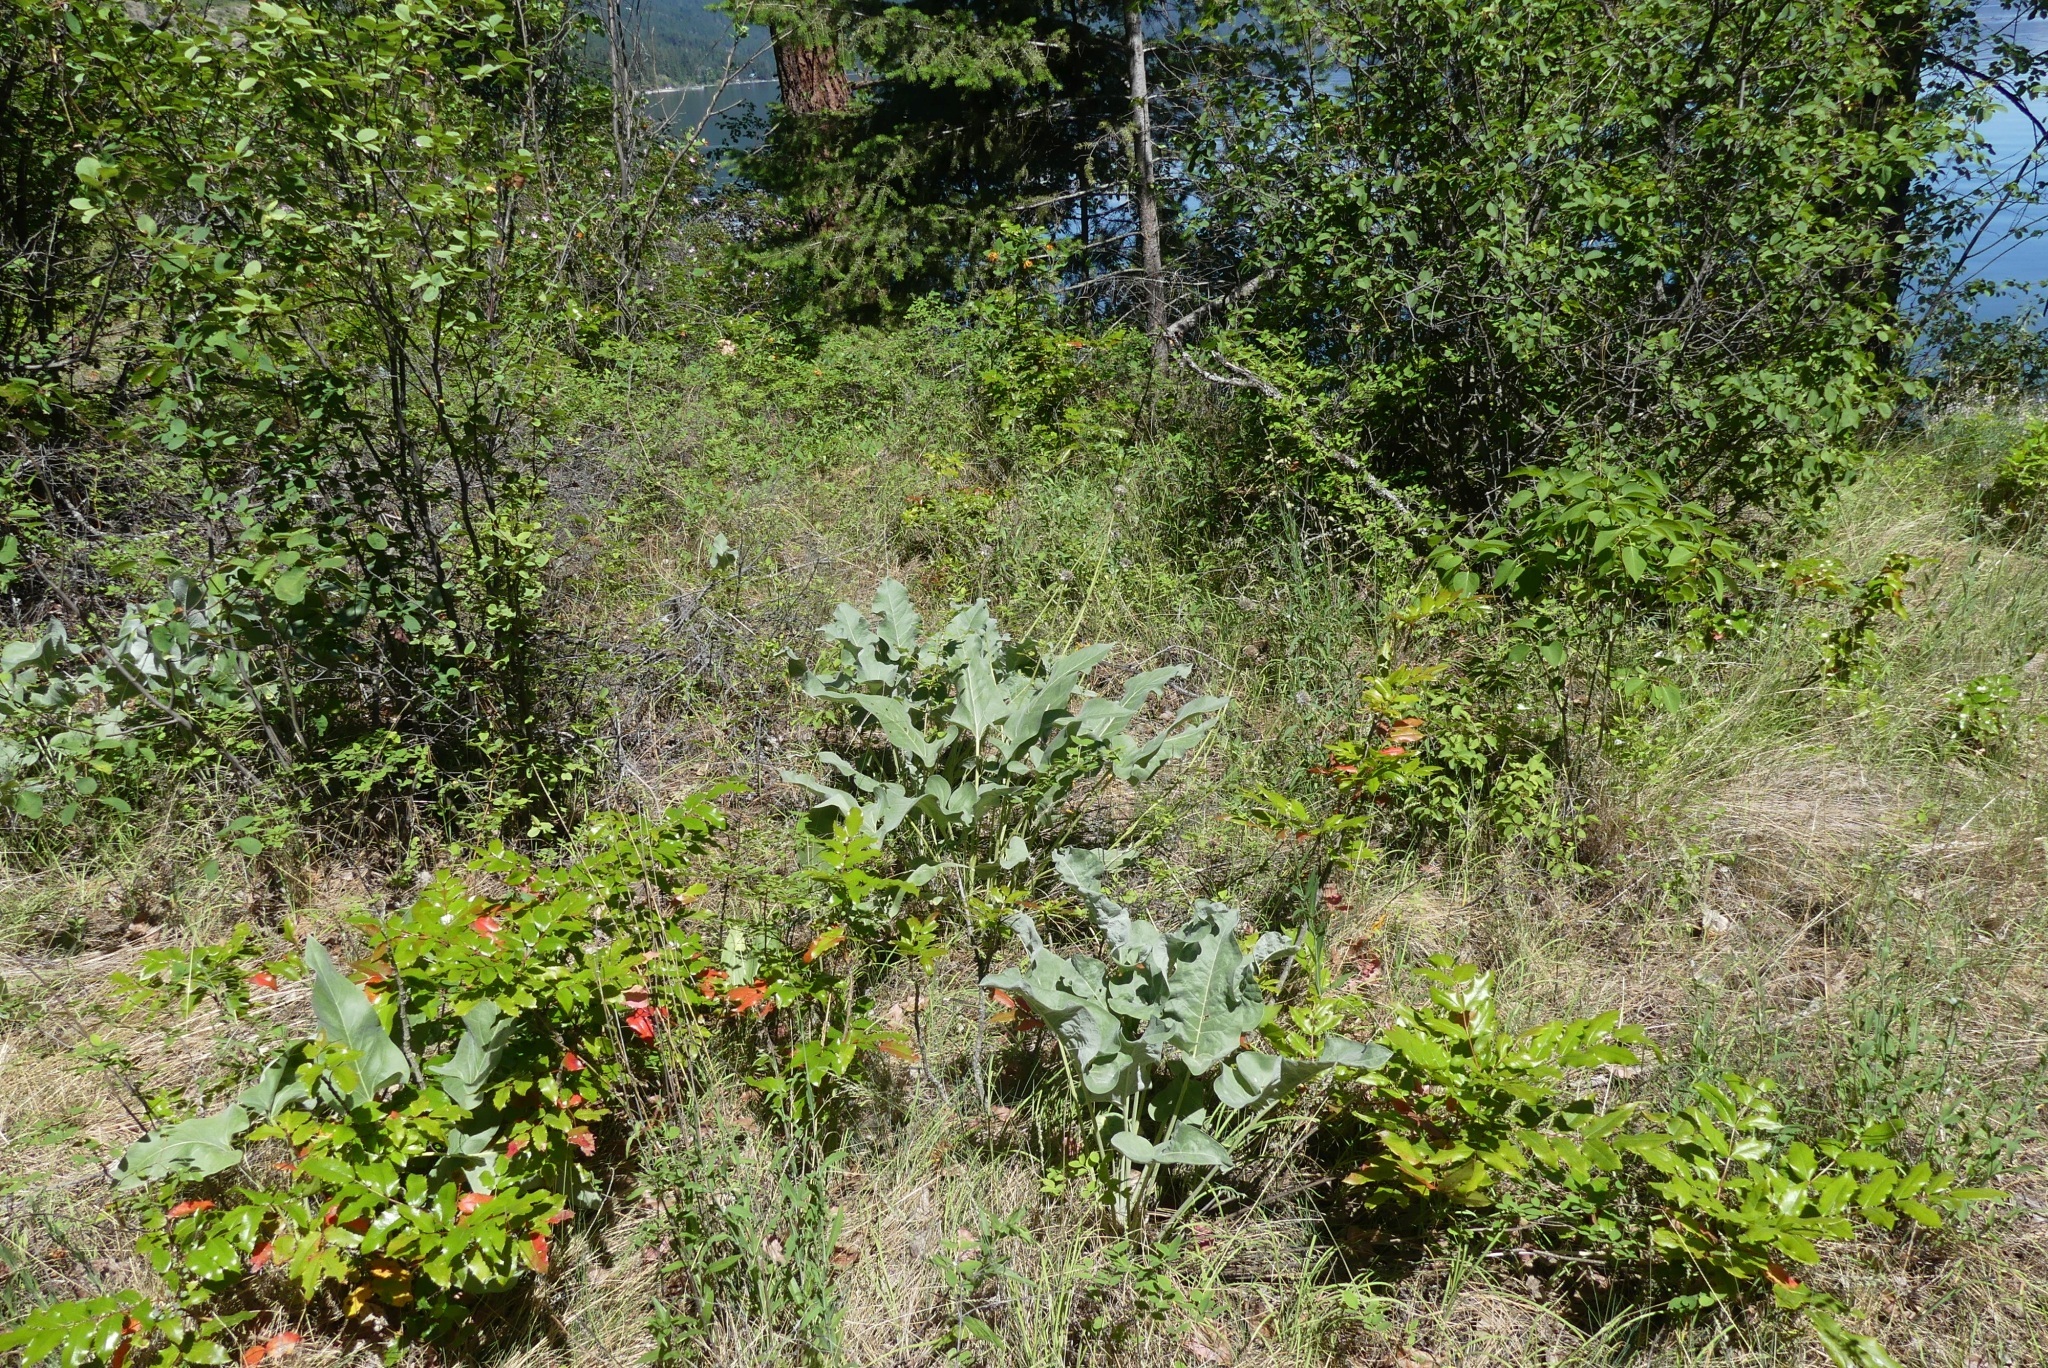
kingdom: Plantae
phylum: Tracheophyta
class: Magnoliopsida
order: Asterales
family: Asteraceae
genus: Wyethia
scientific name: Wyethia sagittata
